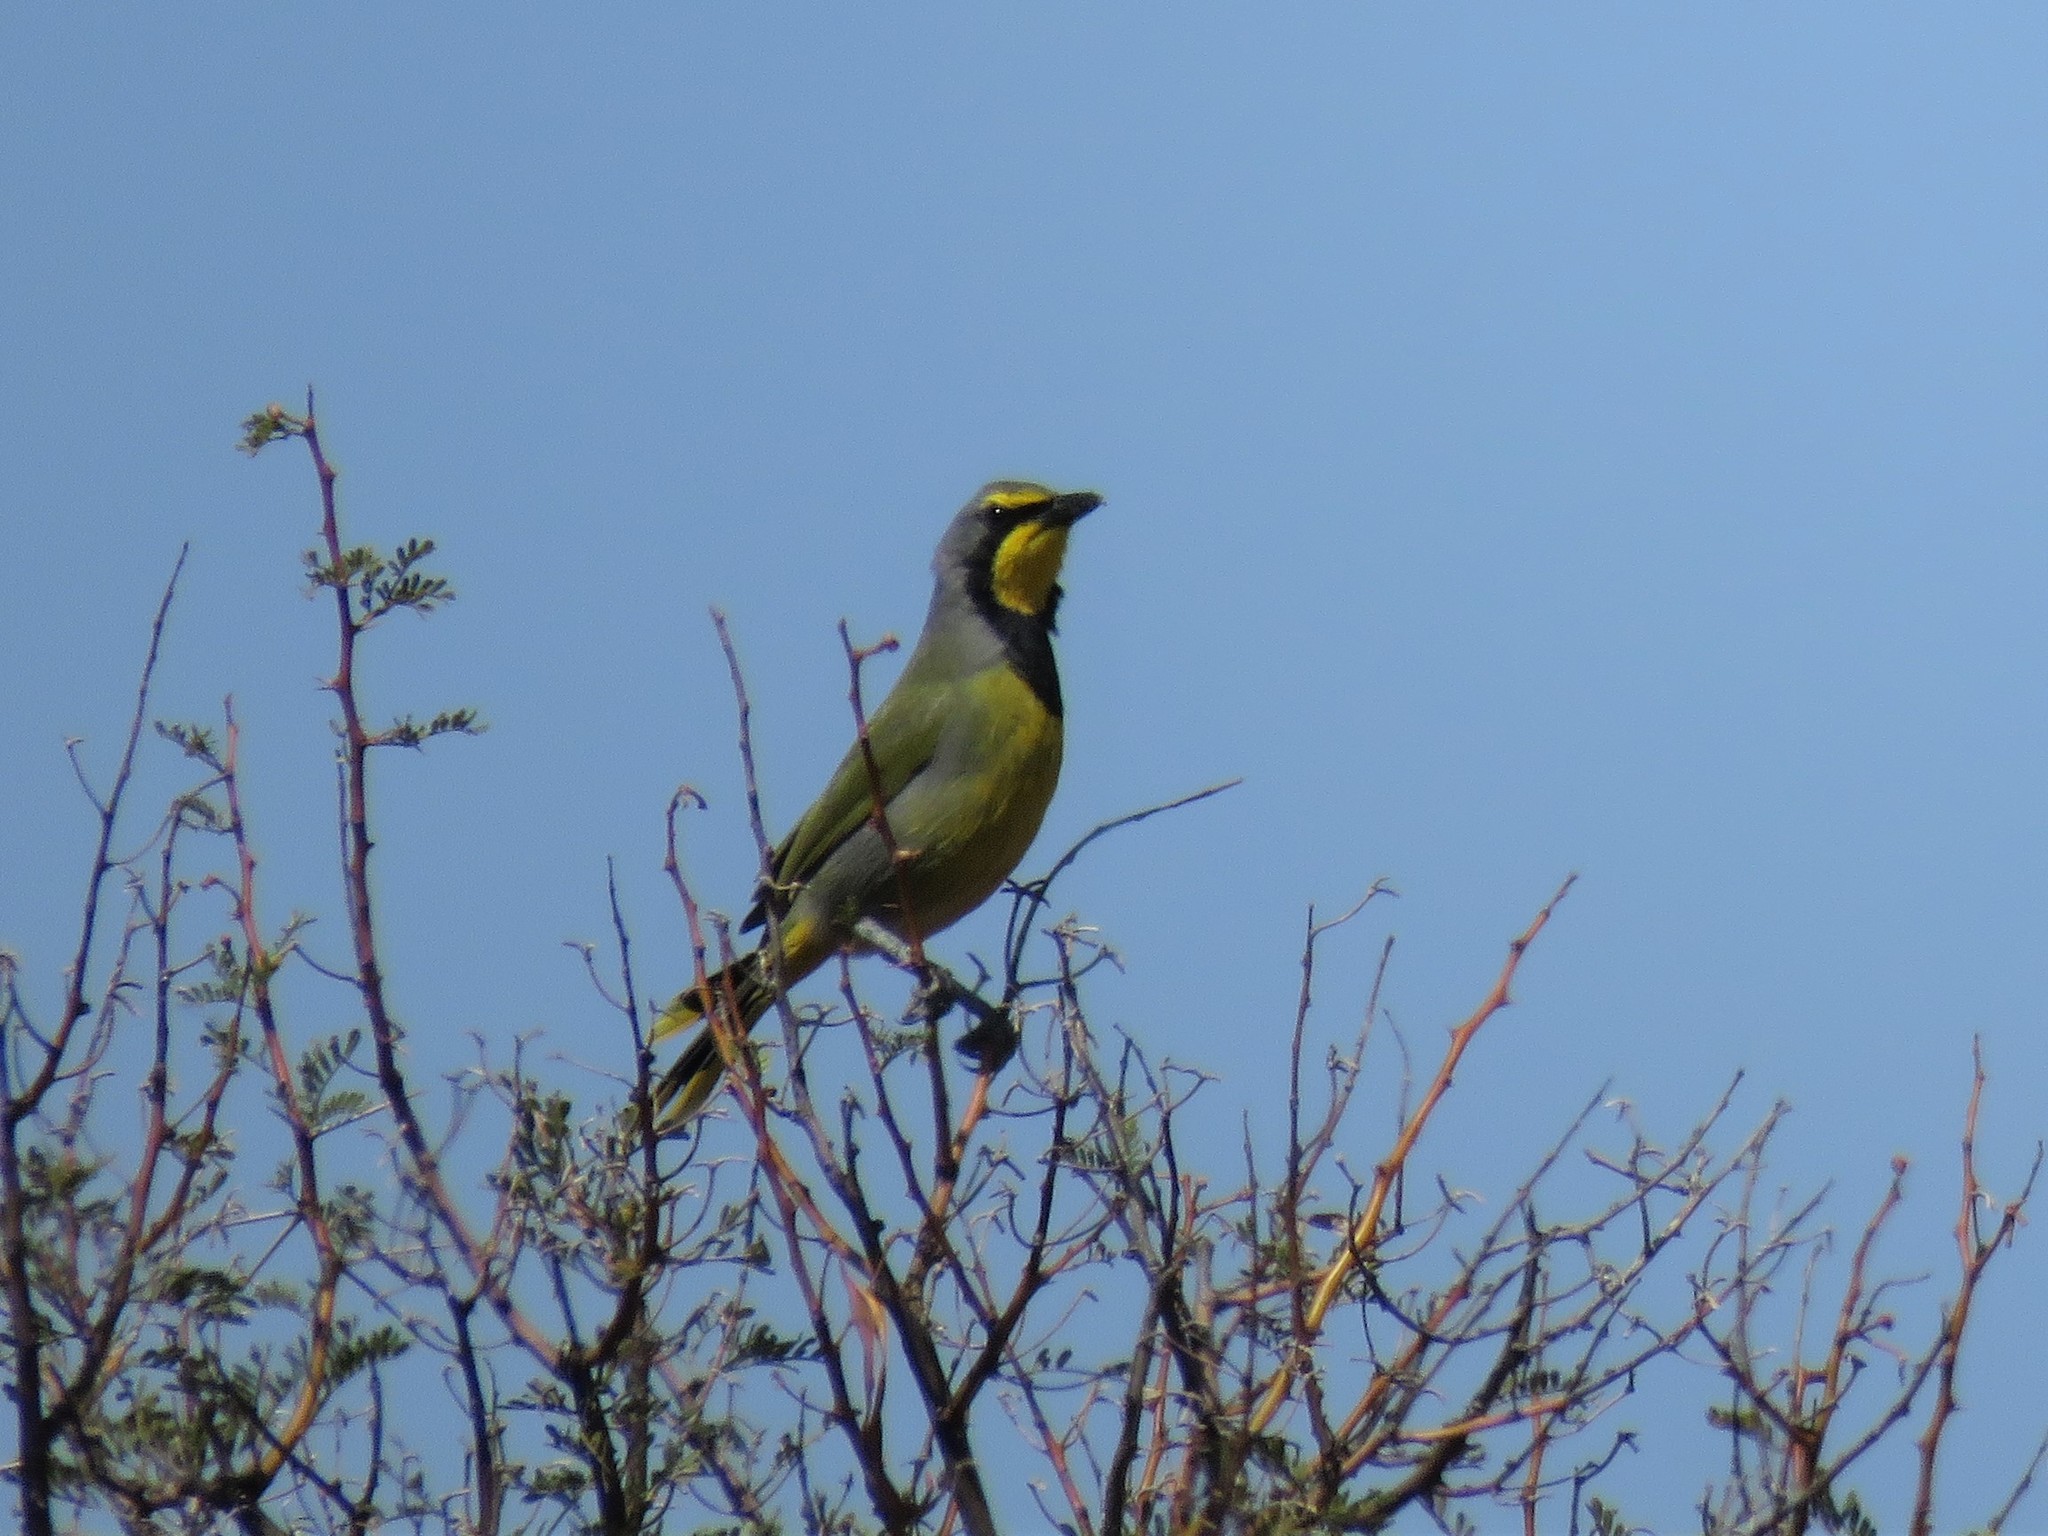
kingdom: Animalia
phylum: Chordata
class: Aves
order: Passeriformes
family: Malaconotidae
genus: Telophorus
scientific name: Telophorus zeylonus
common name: Bokmakierie
